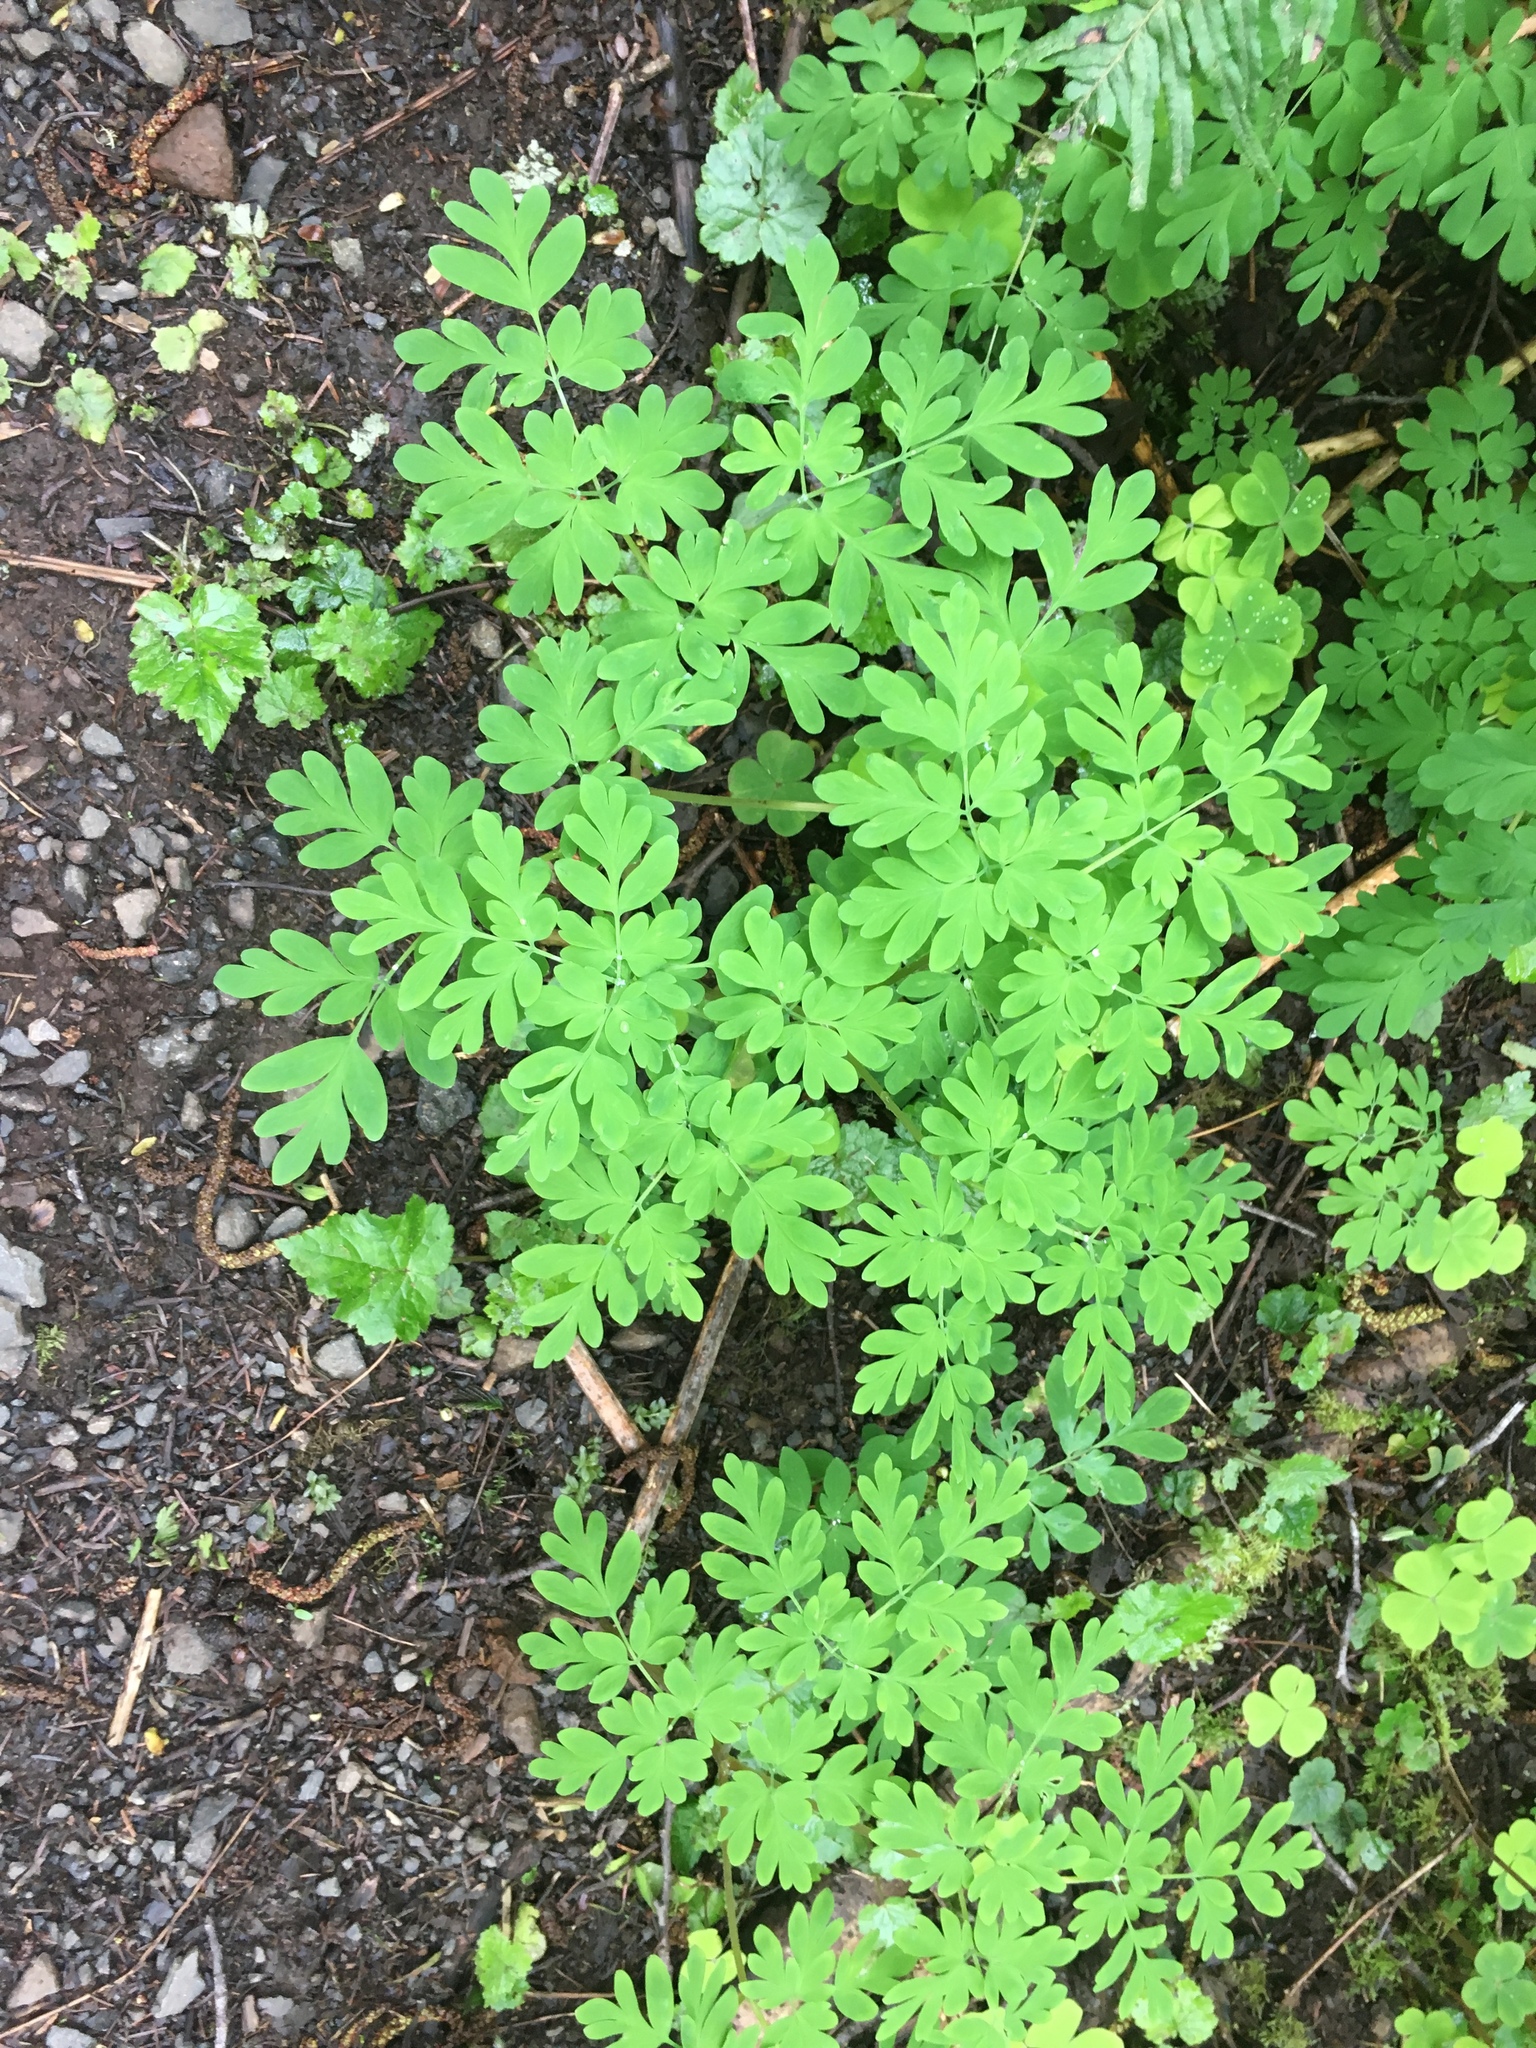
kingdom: Plantae
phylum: Tracheophyta
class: Magnoliopsida
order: Ranunculales
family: Papaveraceae
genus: Corydalis
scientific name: Corydalis scouleri
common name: Scouler's corydalis
